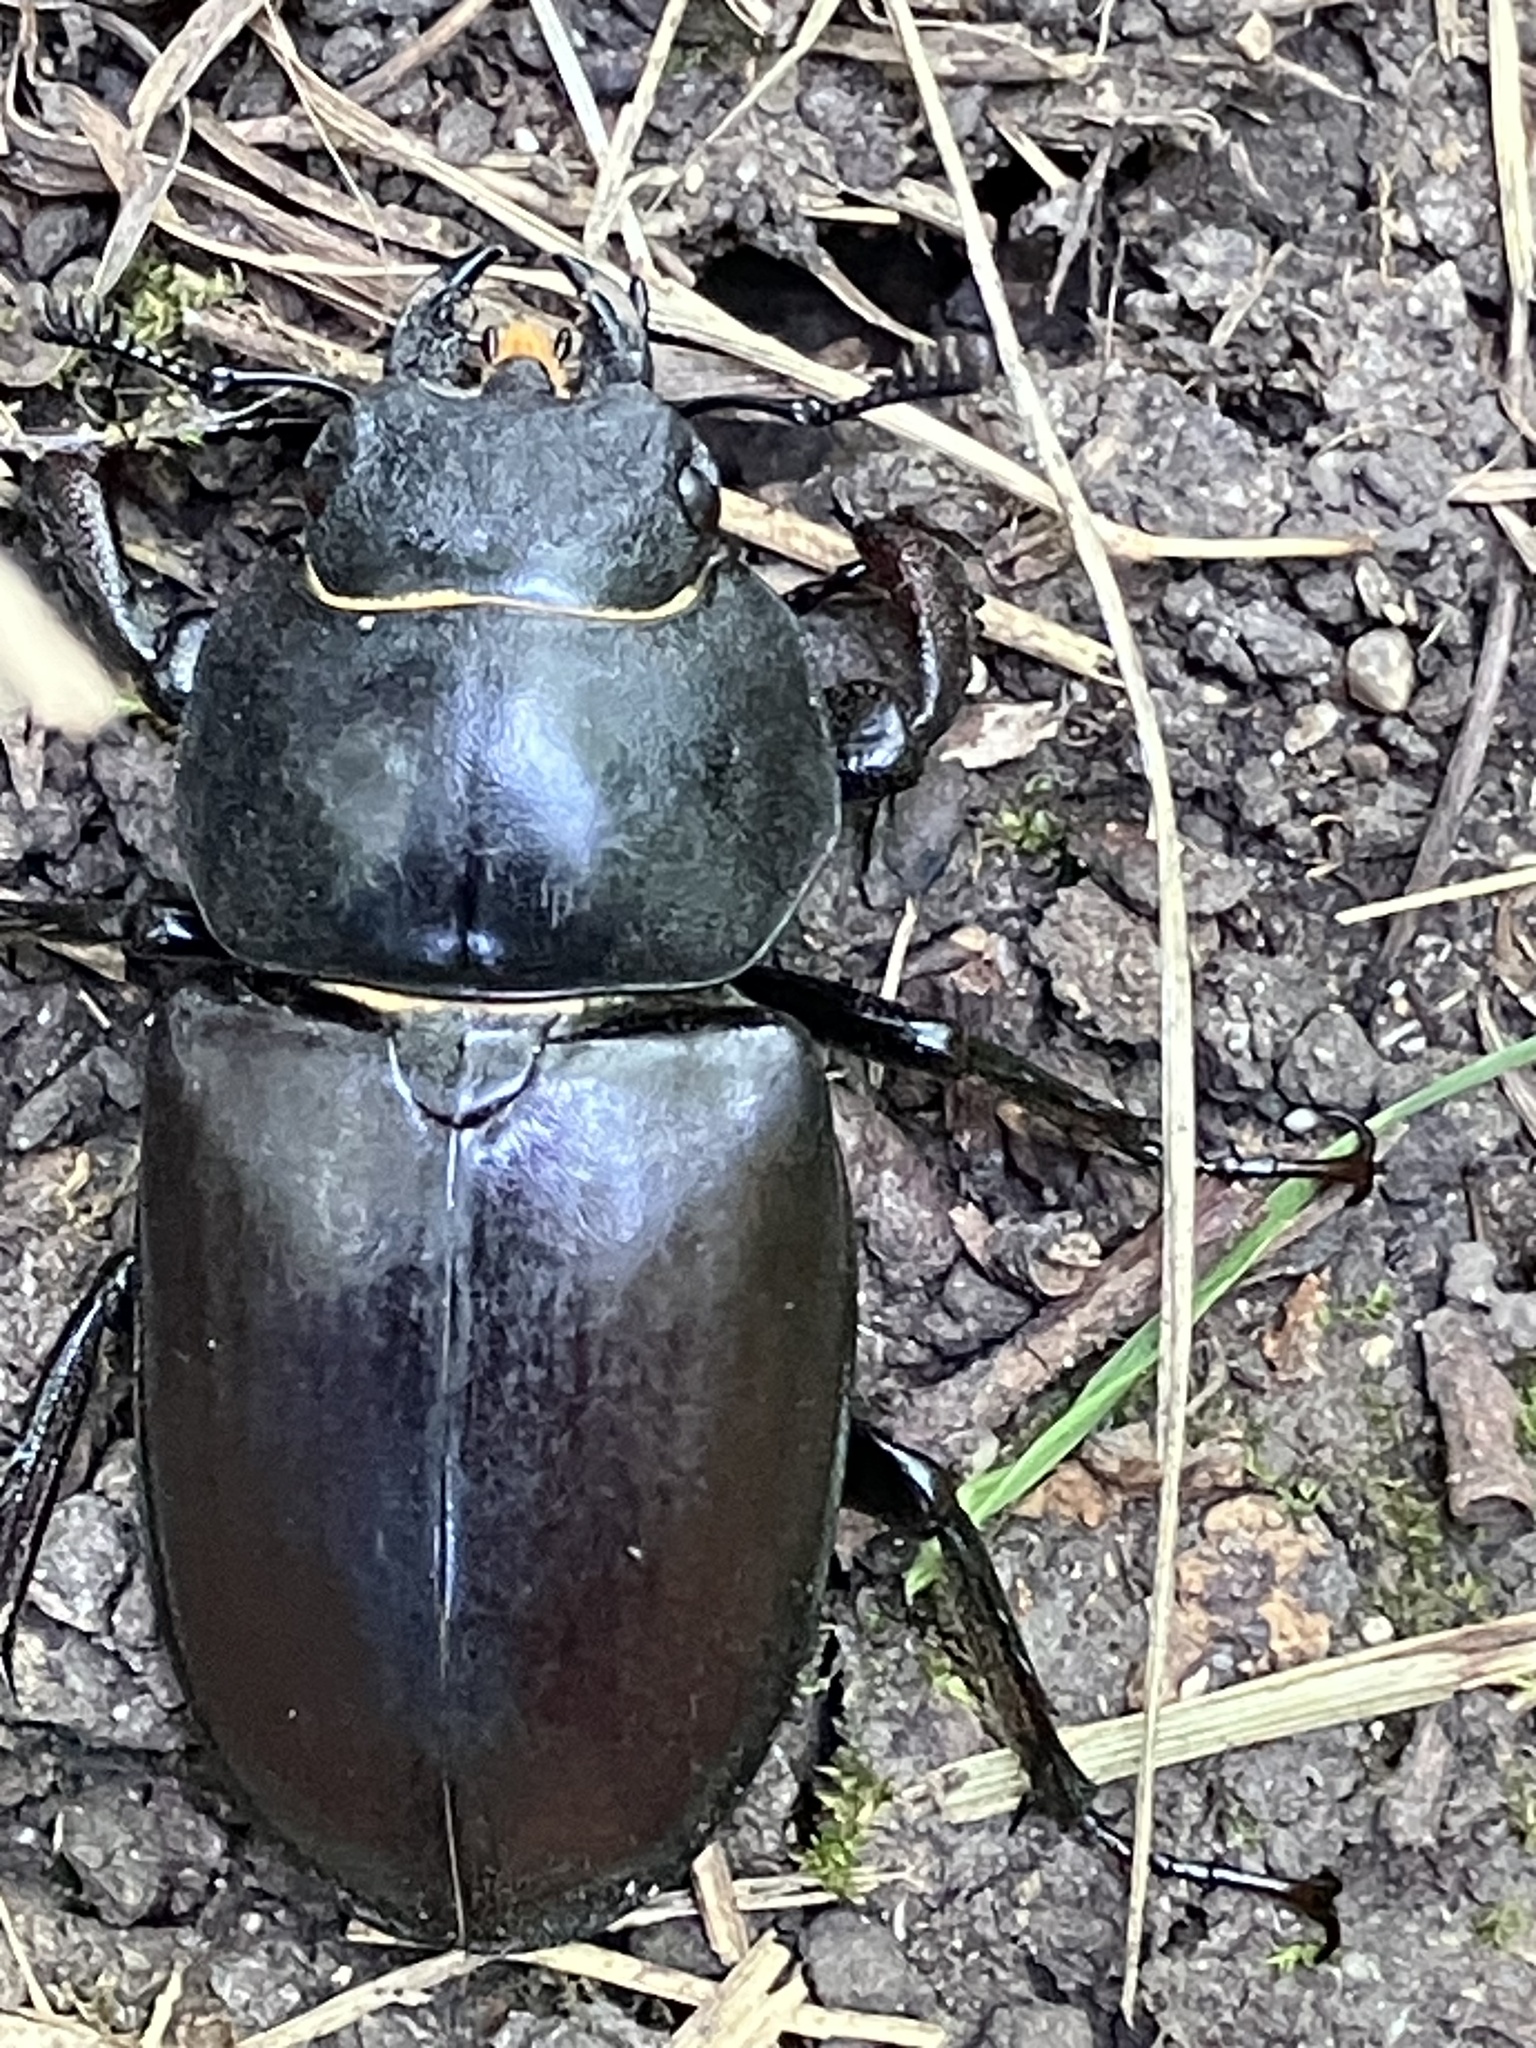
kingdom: Animalia
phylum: Arthropoda
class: Insecta
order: Coleoptera
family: Lucanidae
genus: Lucanus
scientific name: Lucanus cervus
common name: Stag beetle
